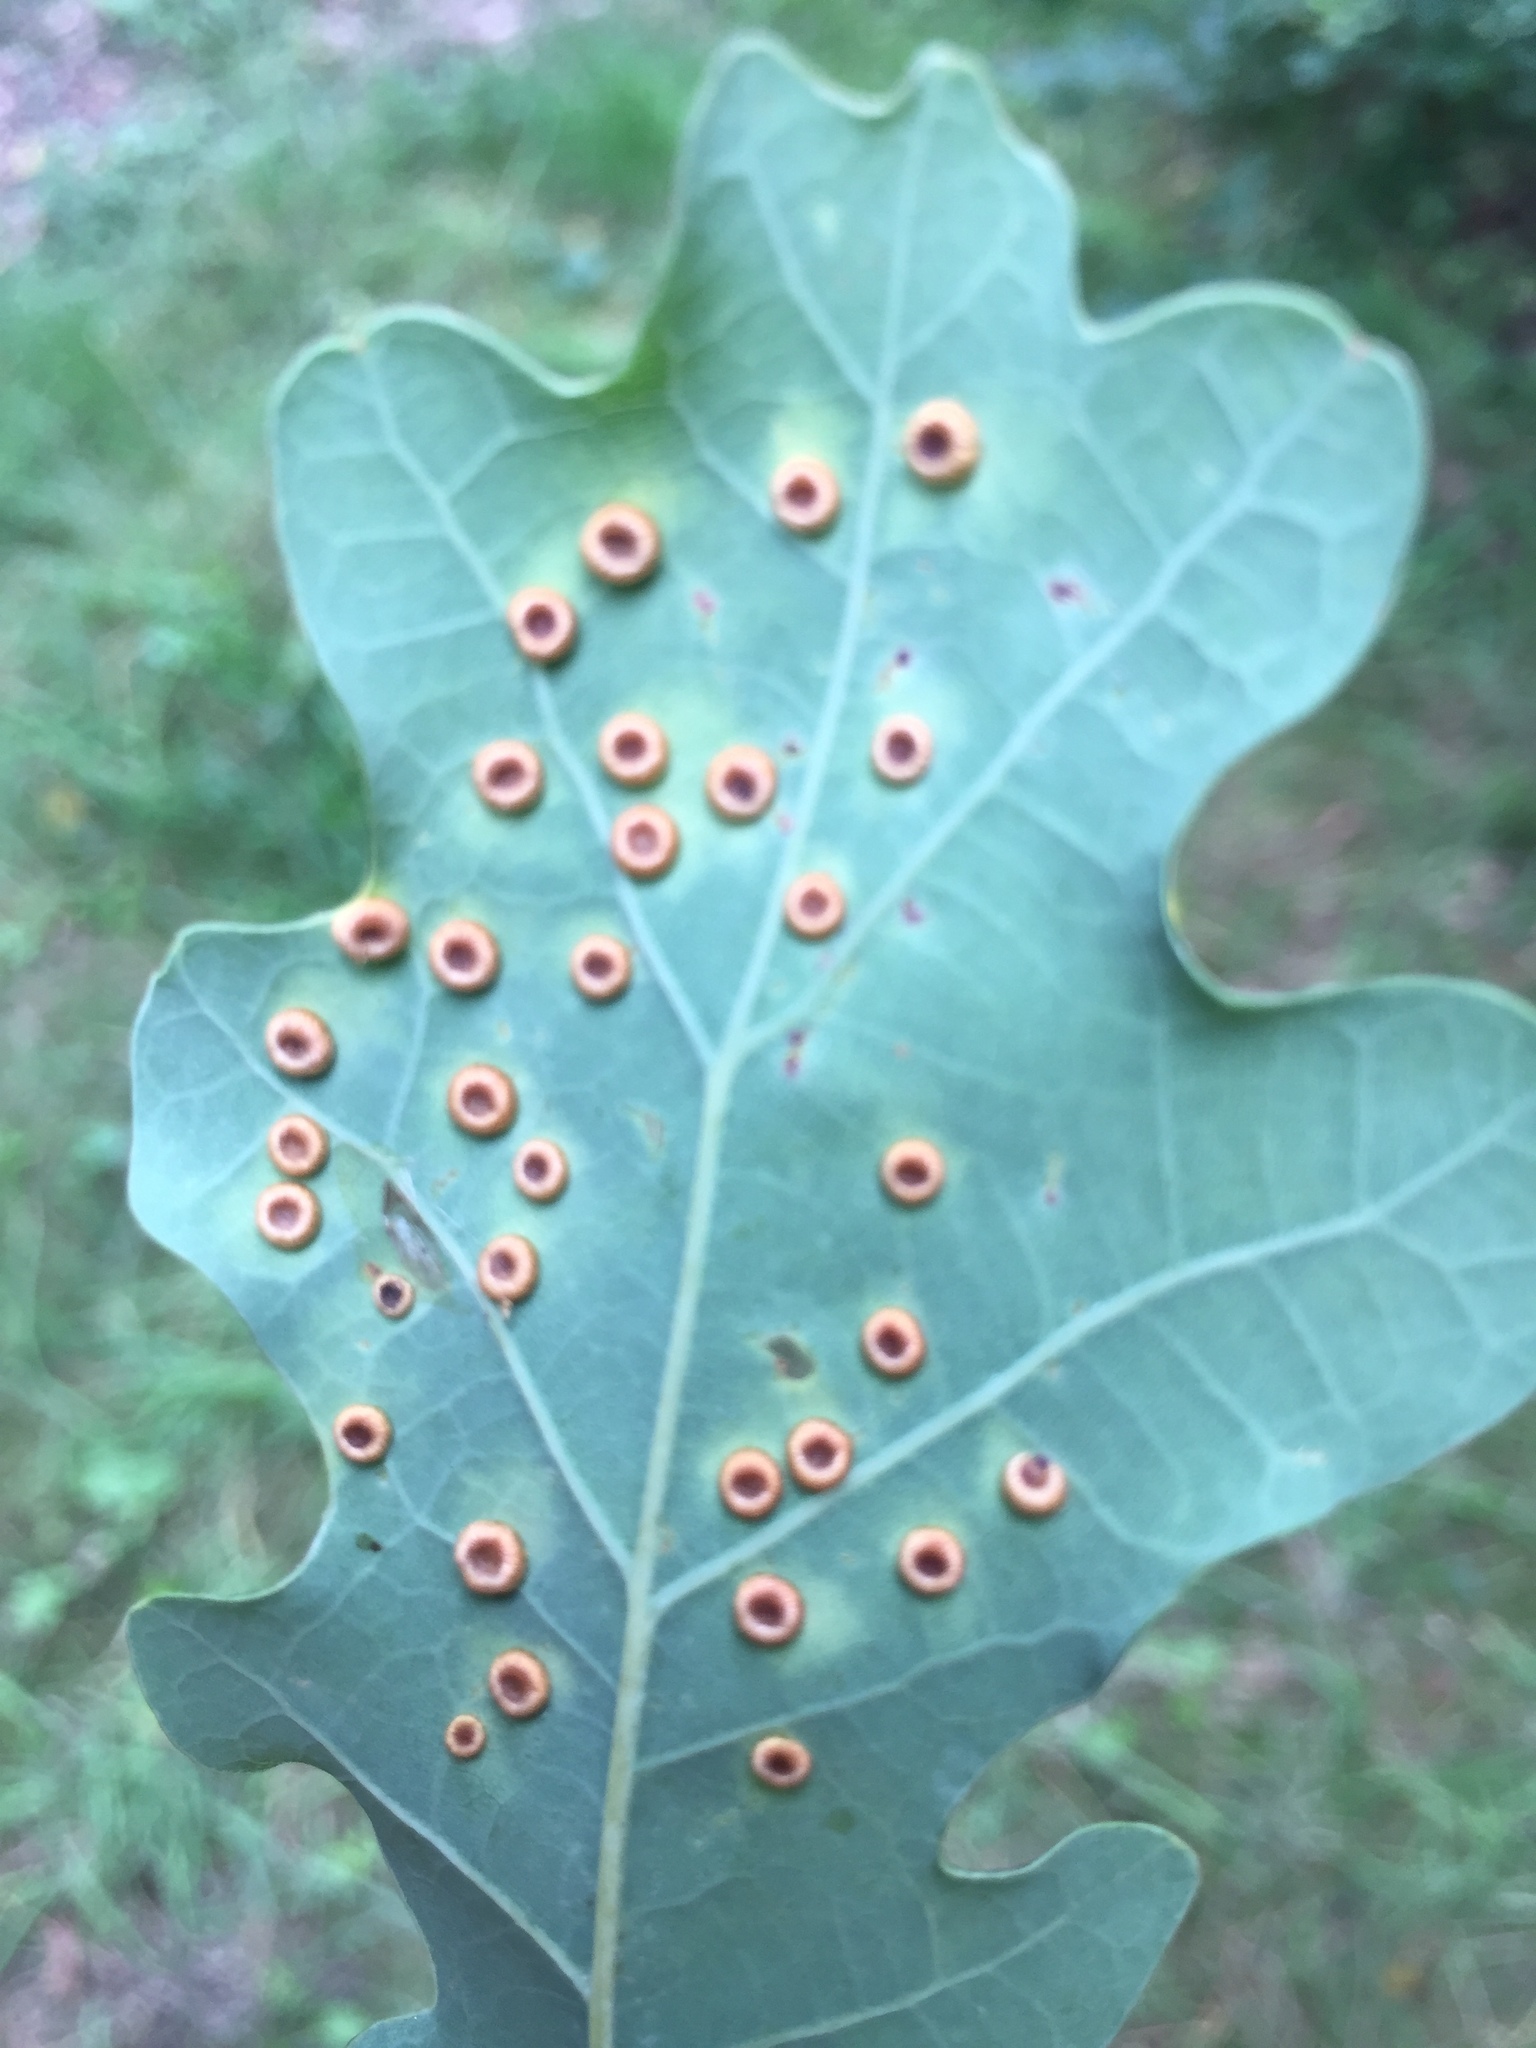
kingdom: Animalia
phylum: Arthropoda
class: Insecta
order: Hymenoptera
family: Cynipidae
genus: Neuroterus
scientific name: Neuroterus numismalis
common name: Silk-button spangle gall
